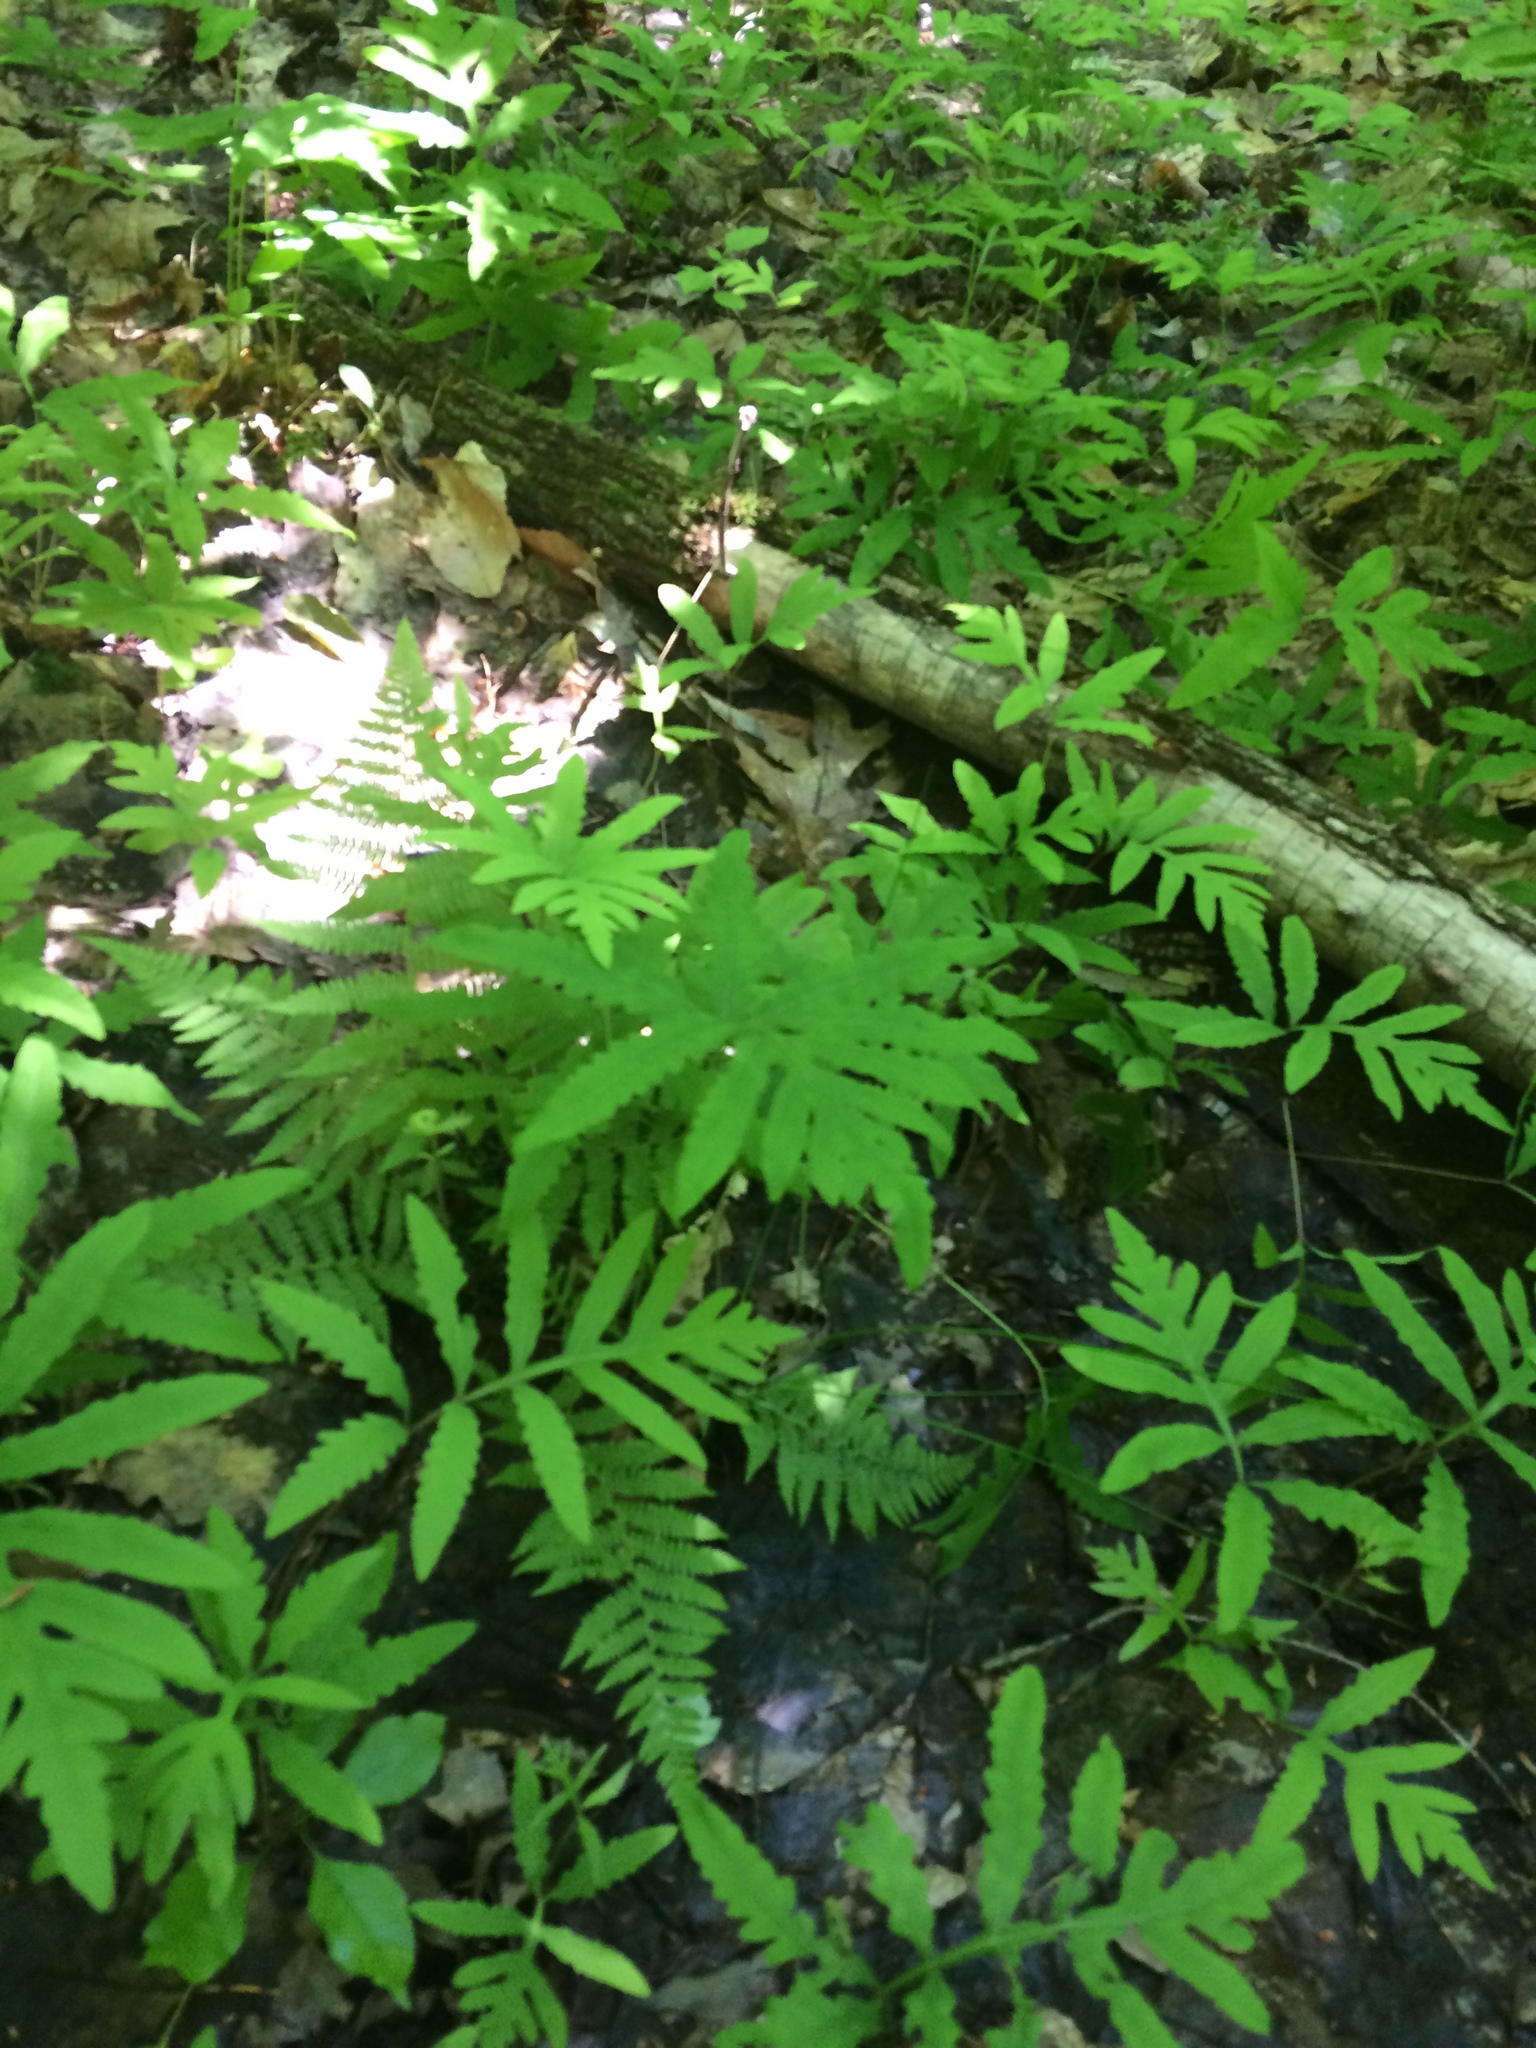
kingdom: Plantae
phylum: Tracheophyta
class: Polypodiopsida
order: Polypodiales
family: Onocleaceae
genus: Onoclea
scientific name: Onoclea sensibilis
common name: Sensitive fern
